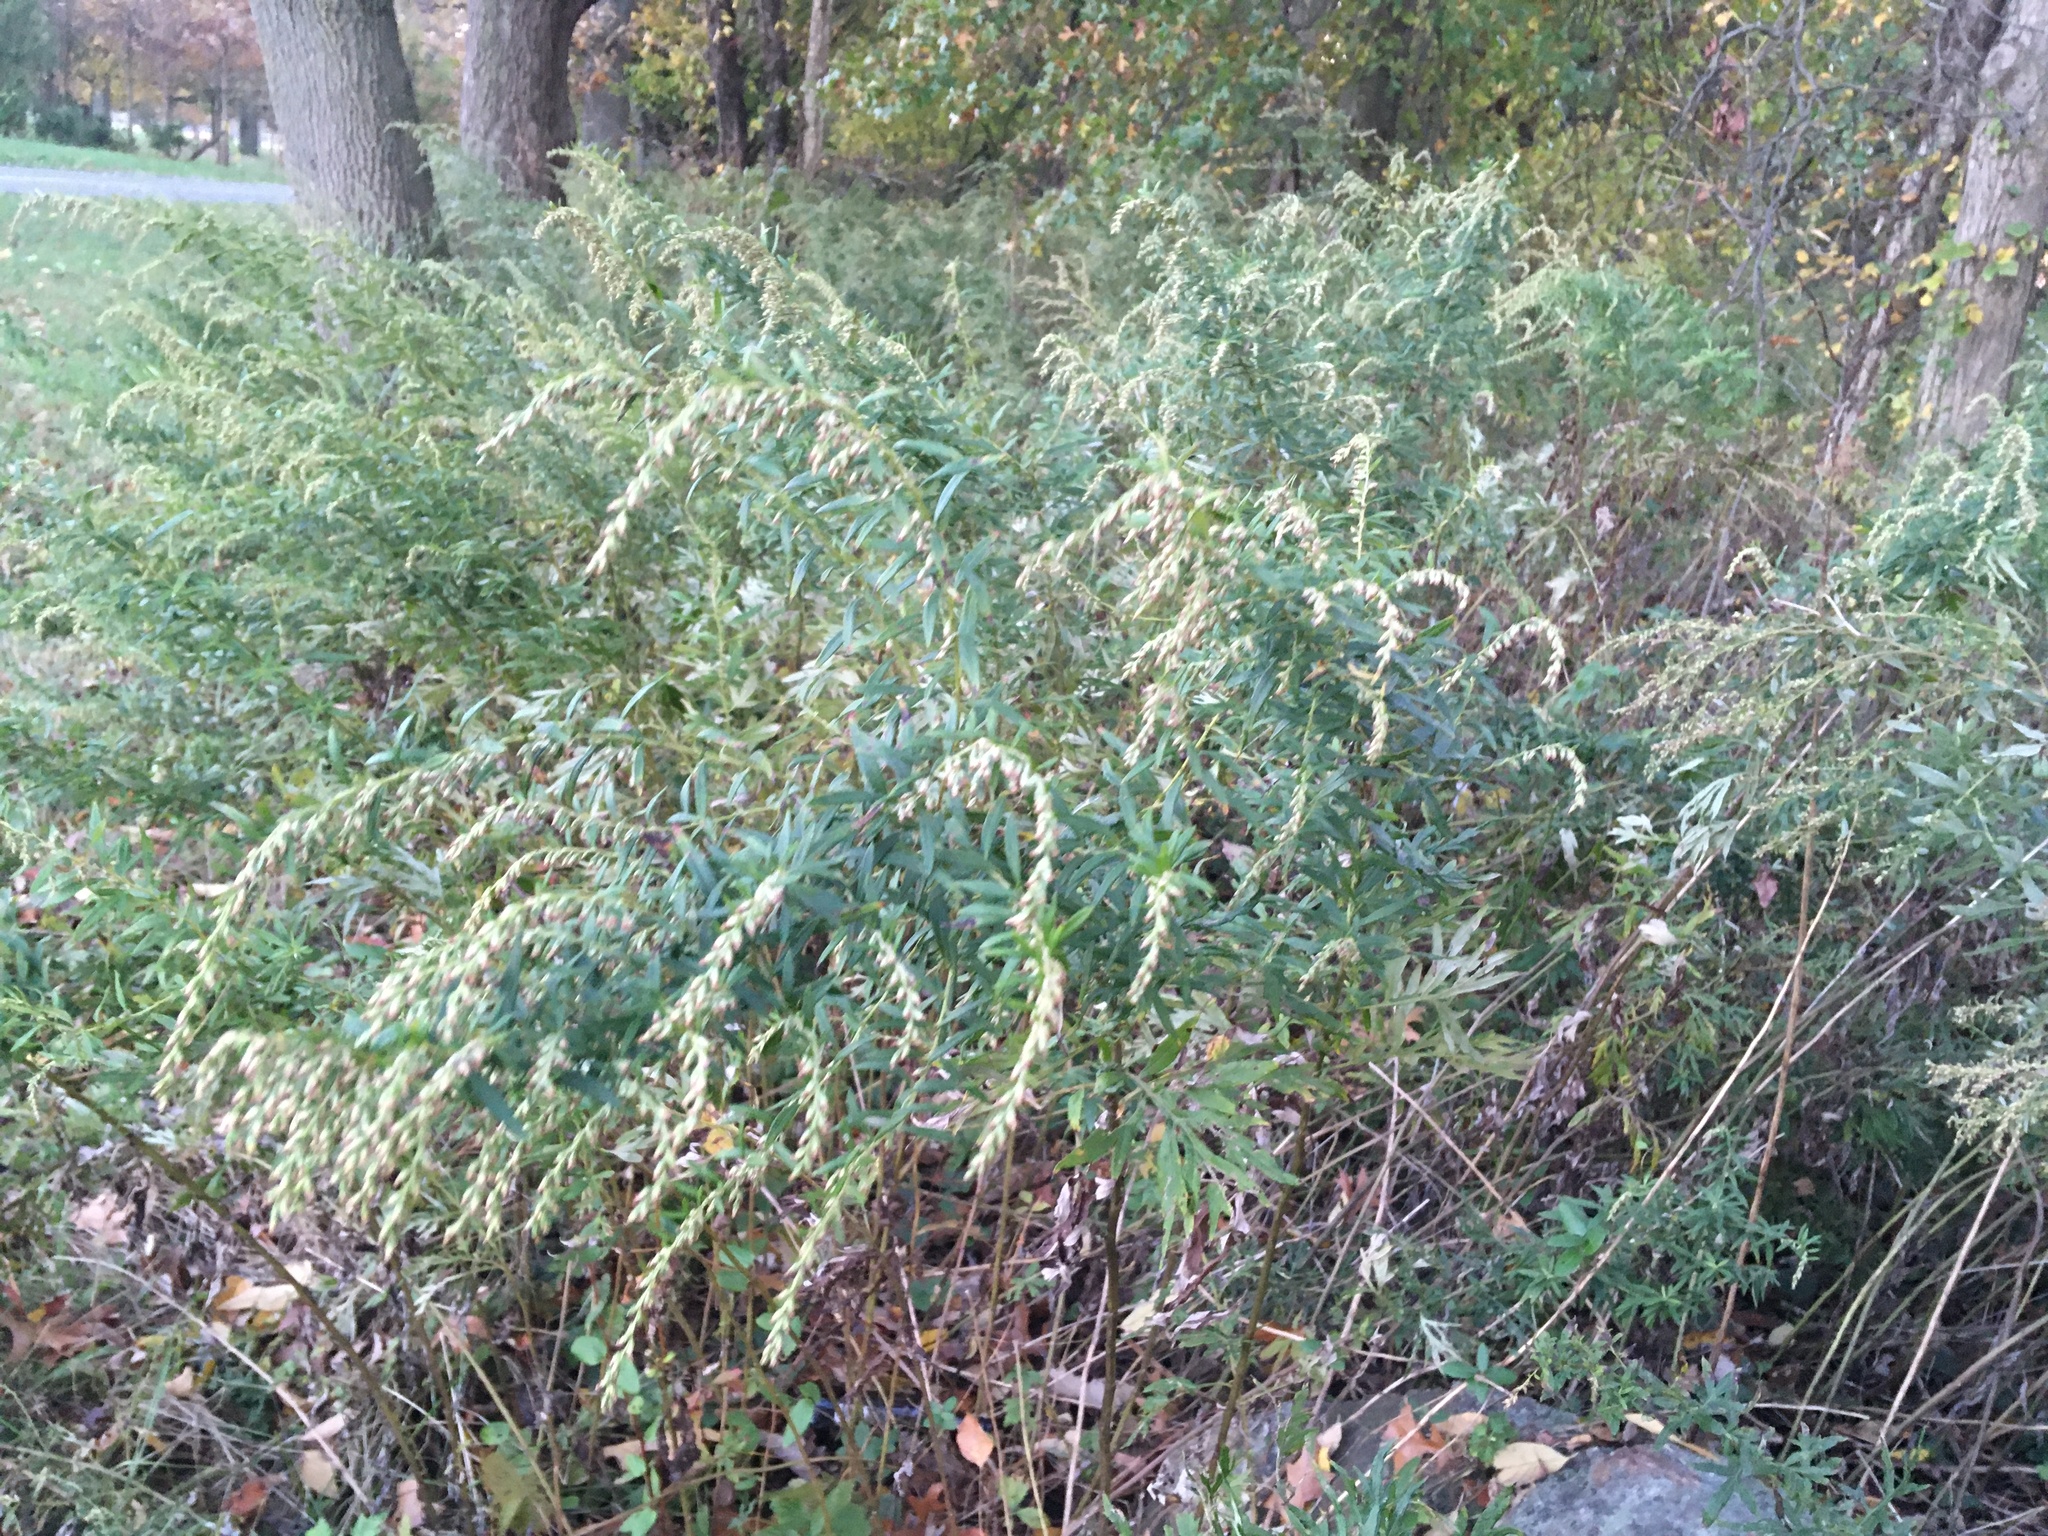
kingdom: Plantae
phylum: Tracheophyta
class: Magnoliopsida
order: Asterales
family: Asteraceae
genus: Artemisia
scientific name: Artemisia vulgaris
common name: Mugwort
